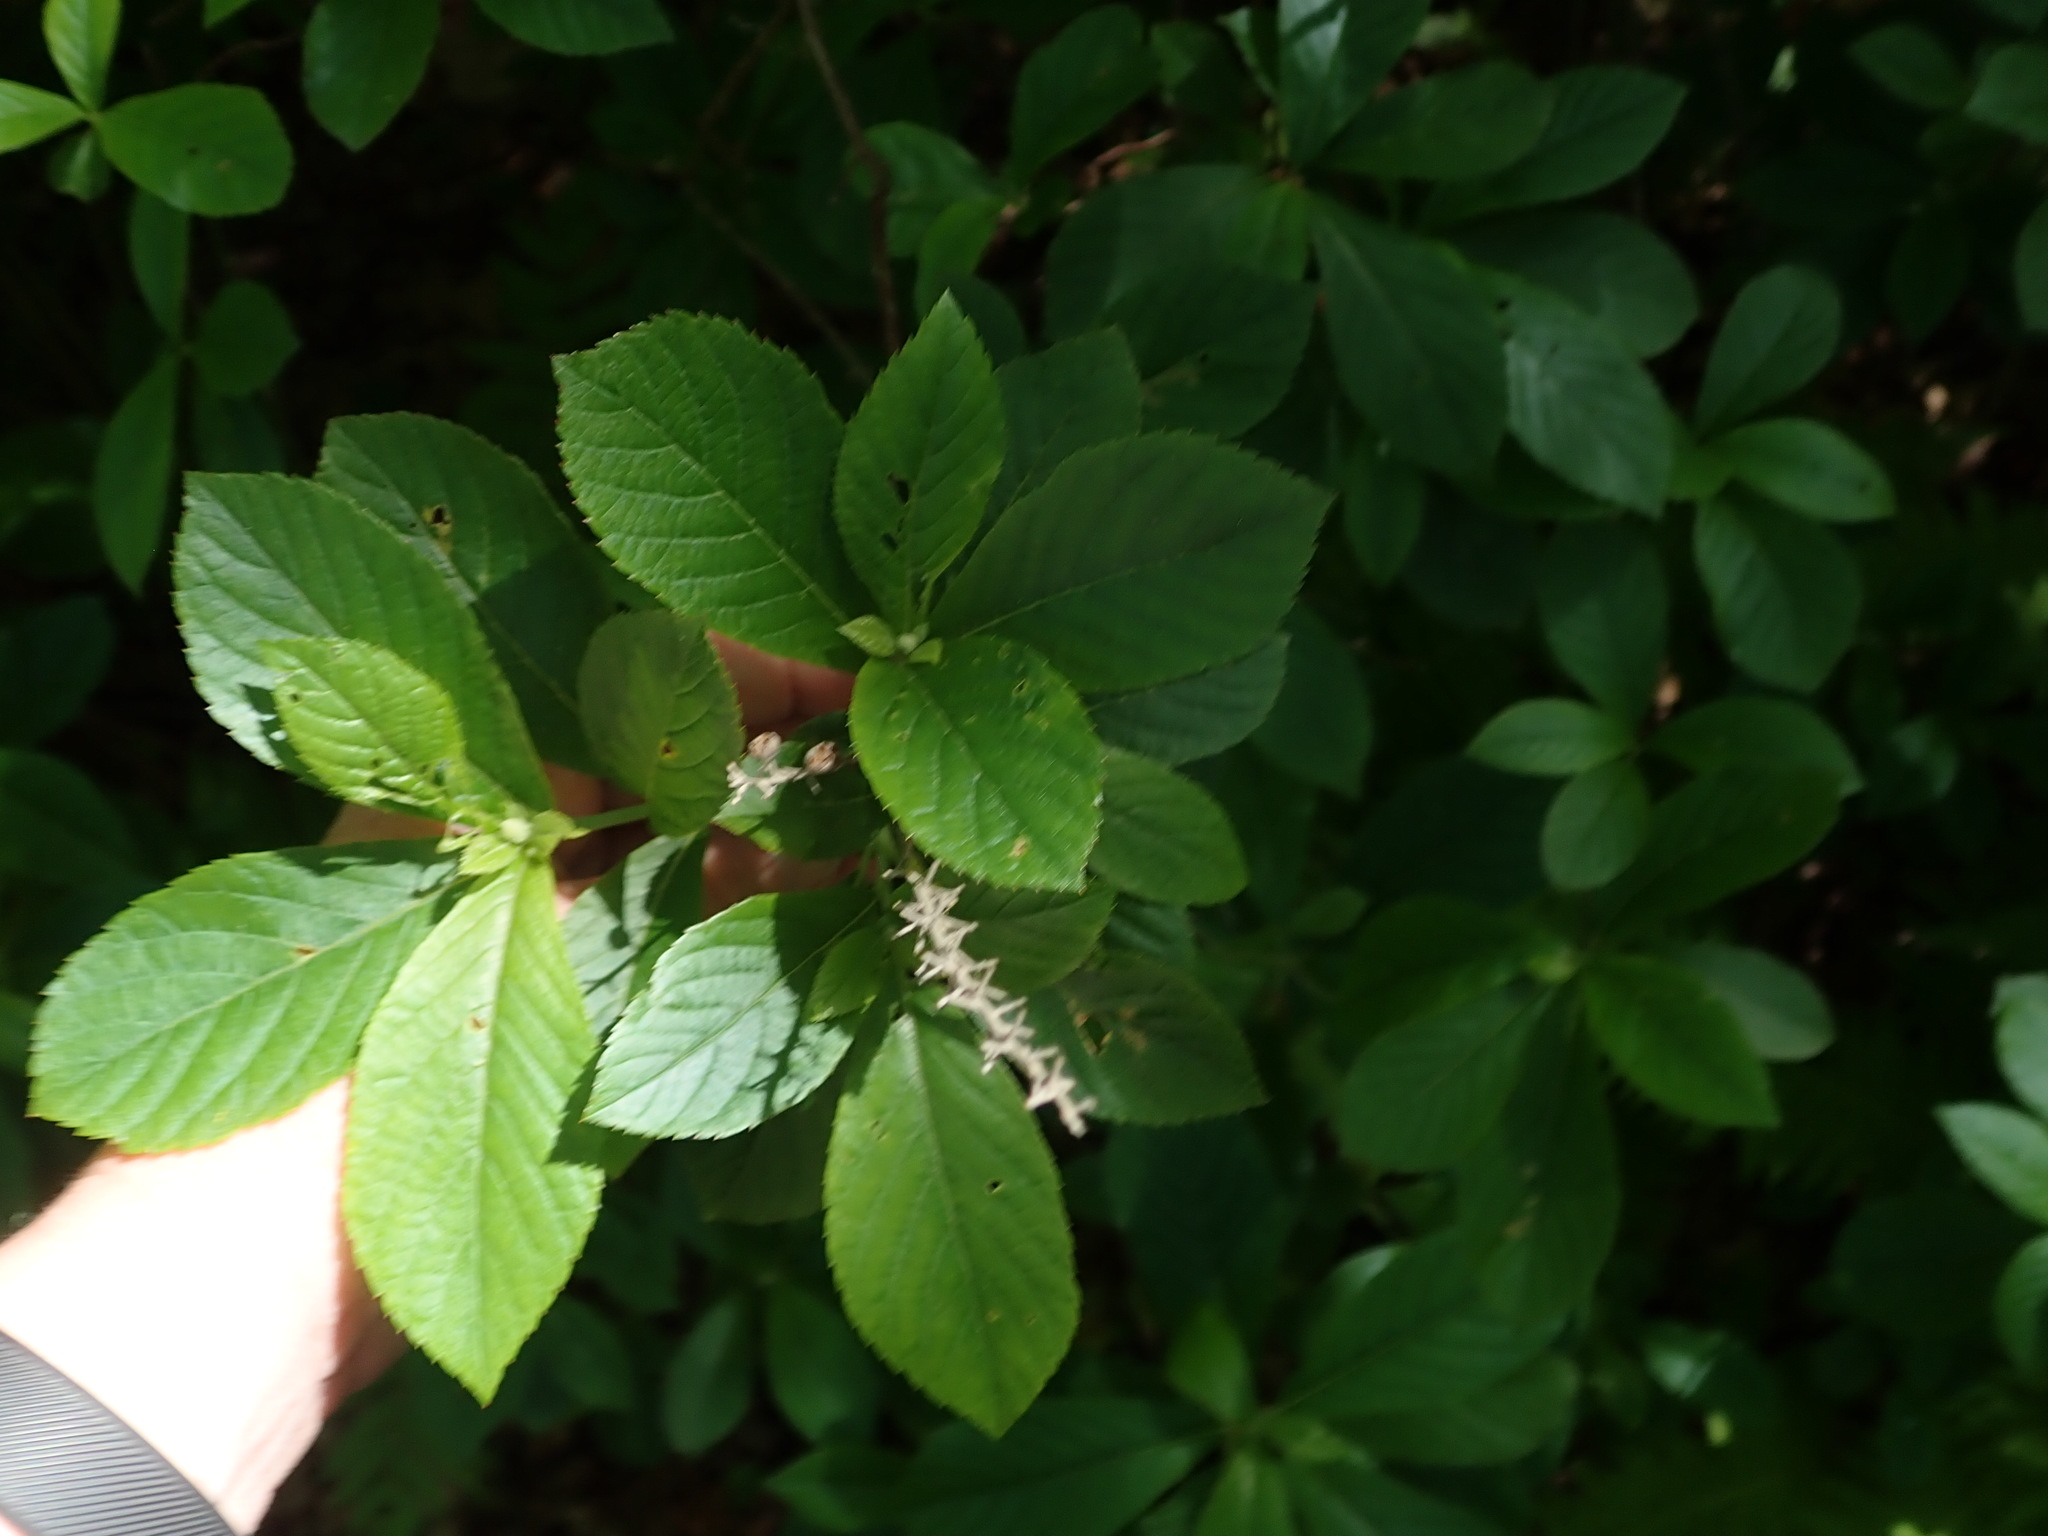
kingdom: Plantae
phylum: Tracheophyta
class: Magnoliopsida
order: Ericales
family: Clethraceae
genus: Clethra
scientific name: Clethra alnifolia
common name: Sweet pepperbush
